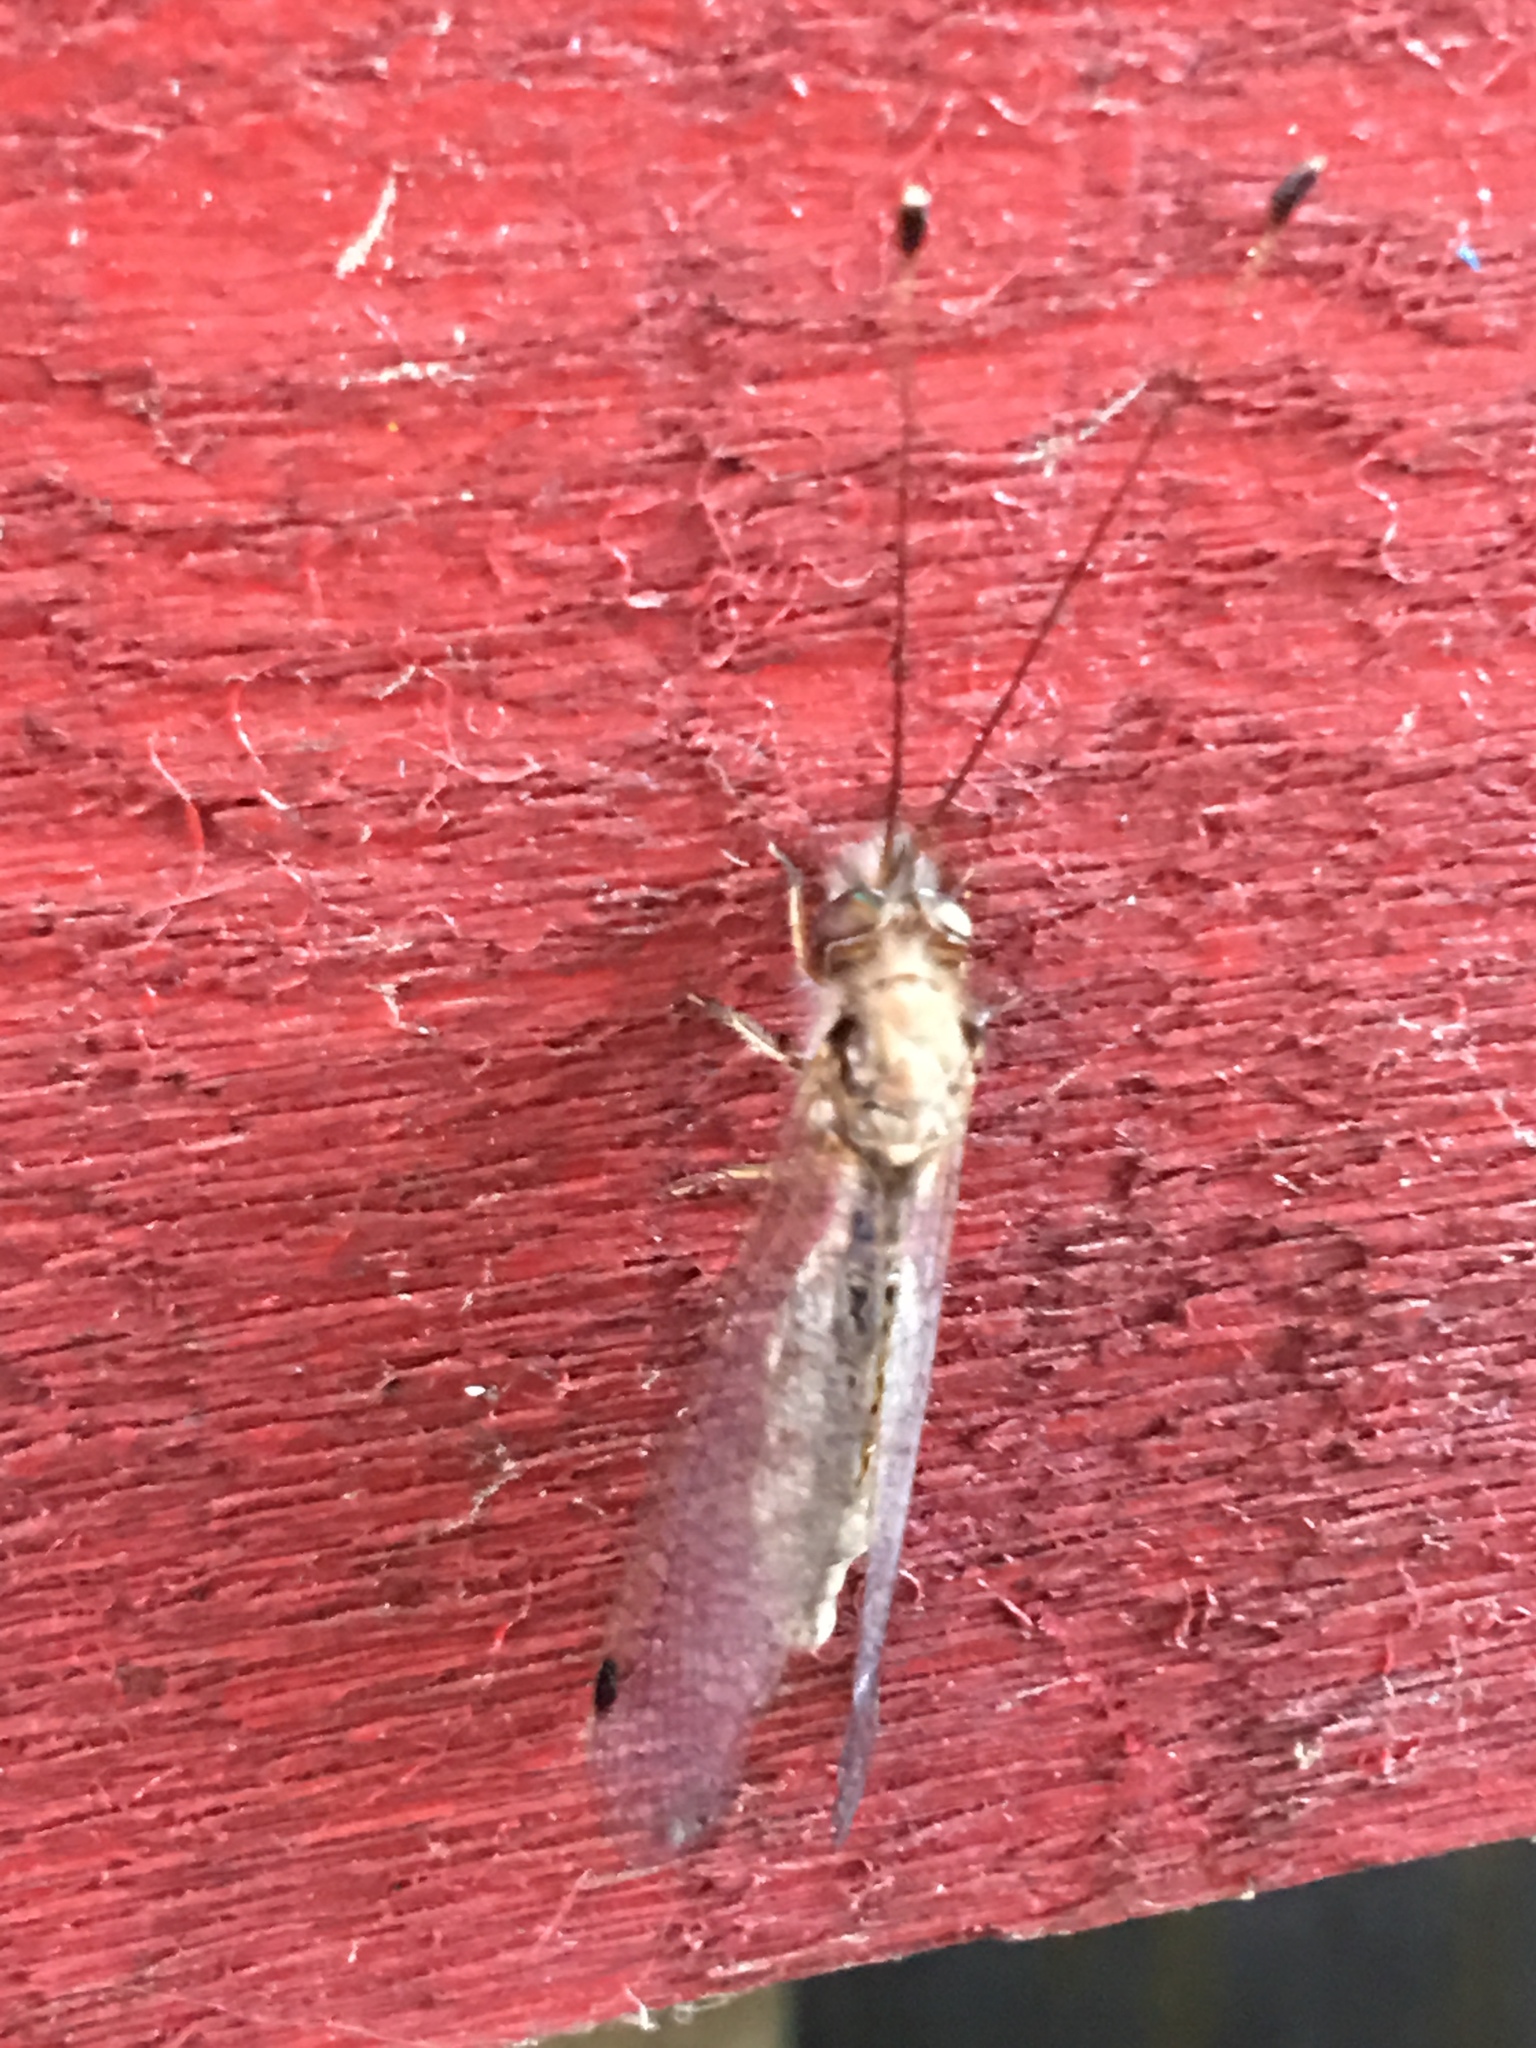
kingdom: Animalia
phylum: Arthropoda
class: Insecta
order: Neuroptera
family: Ascalaphidae
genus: Ululodes
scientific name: Ululodes macleayanus
